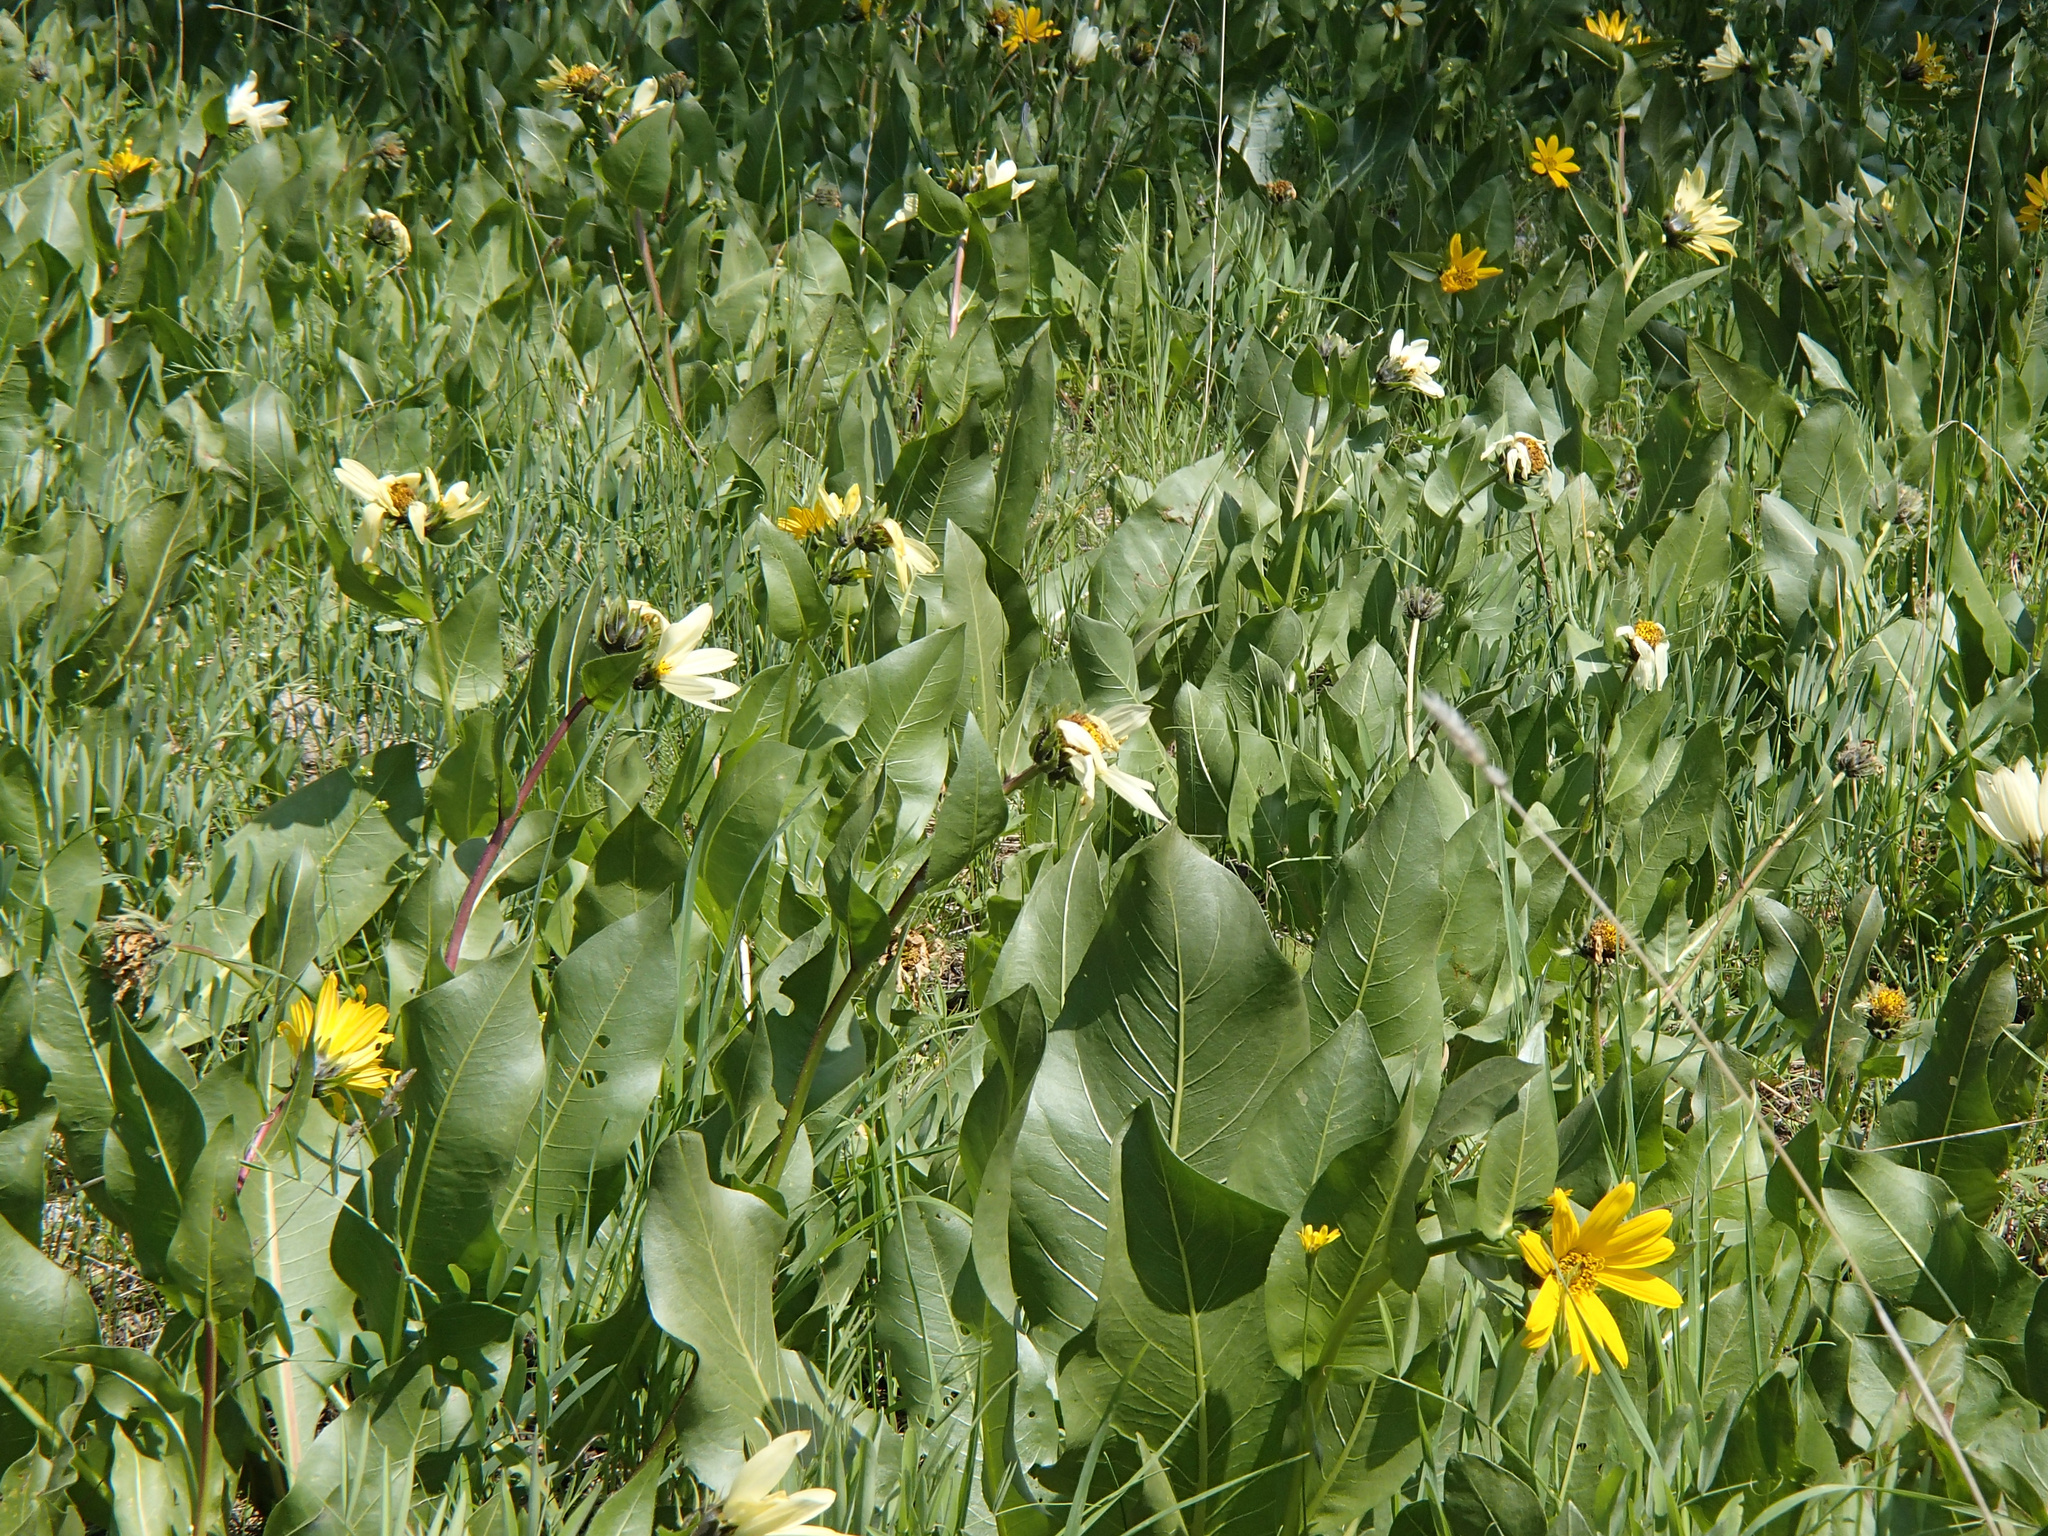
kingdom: Plantae
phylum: Tracheophyta
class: Magnoliopsida
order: Asterales
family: Asteraceae
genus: Wyethia
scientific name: Wyethia amplexicaulis
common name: Northern mule's-ears
